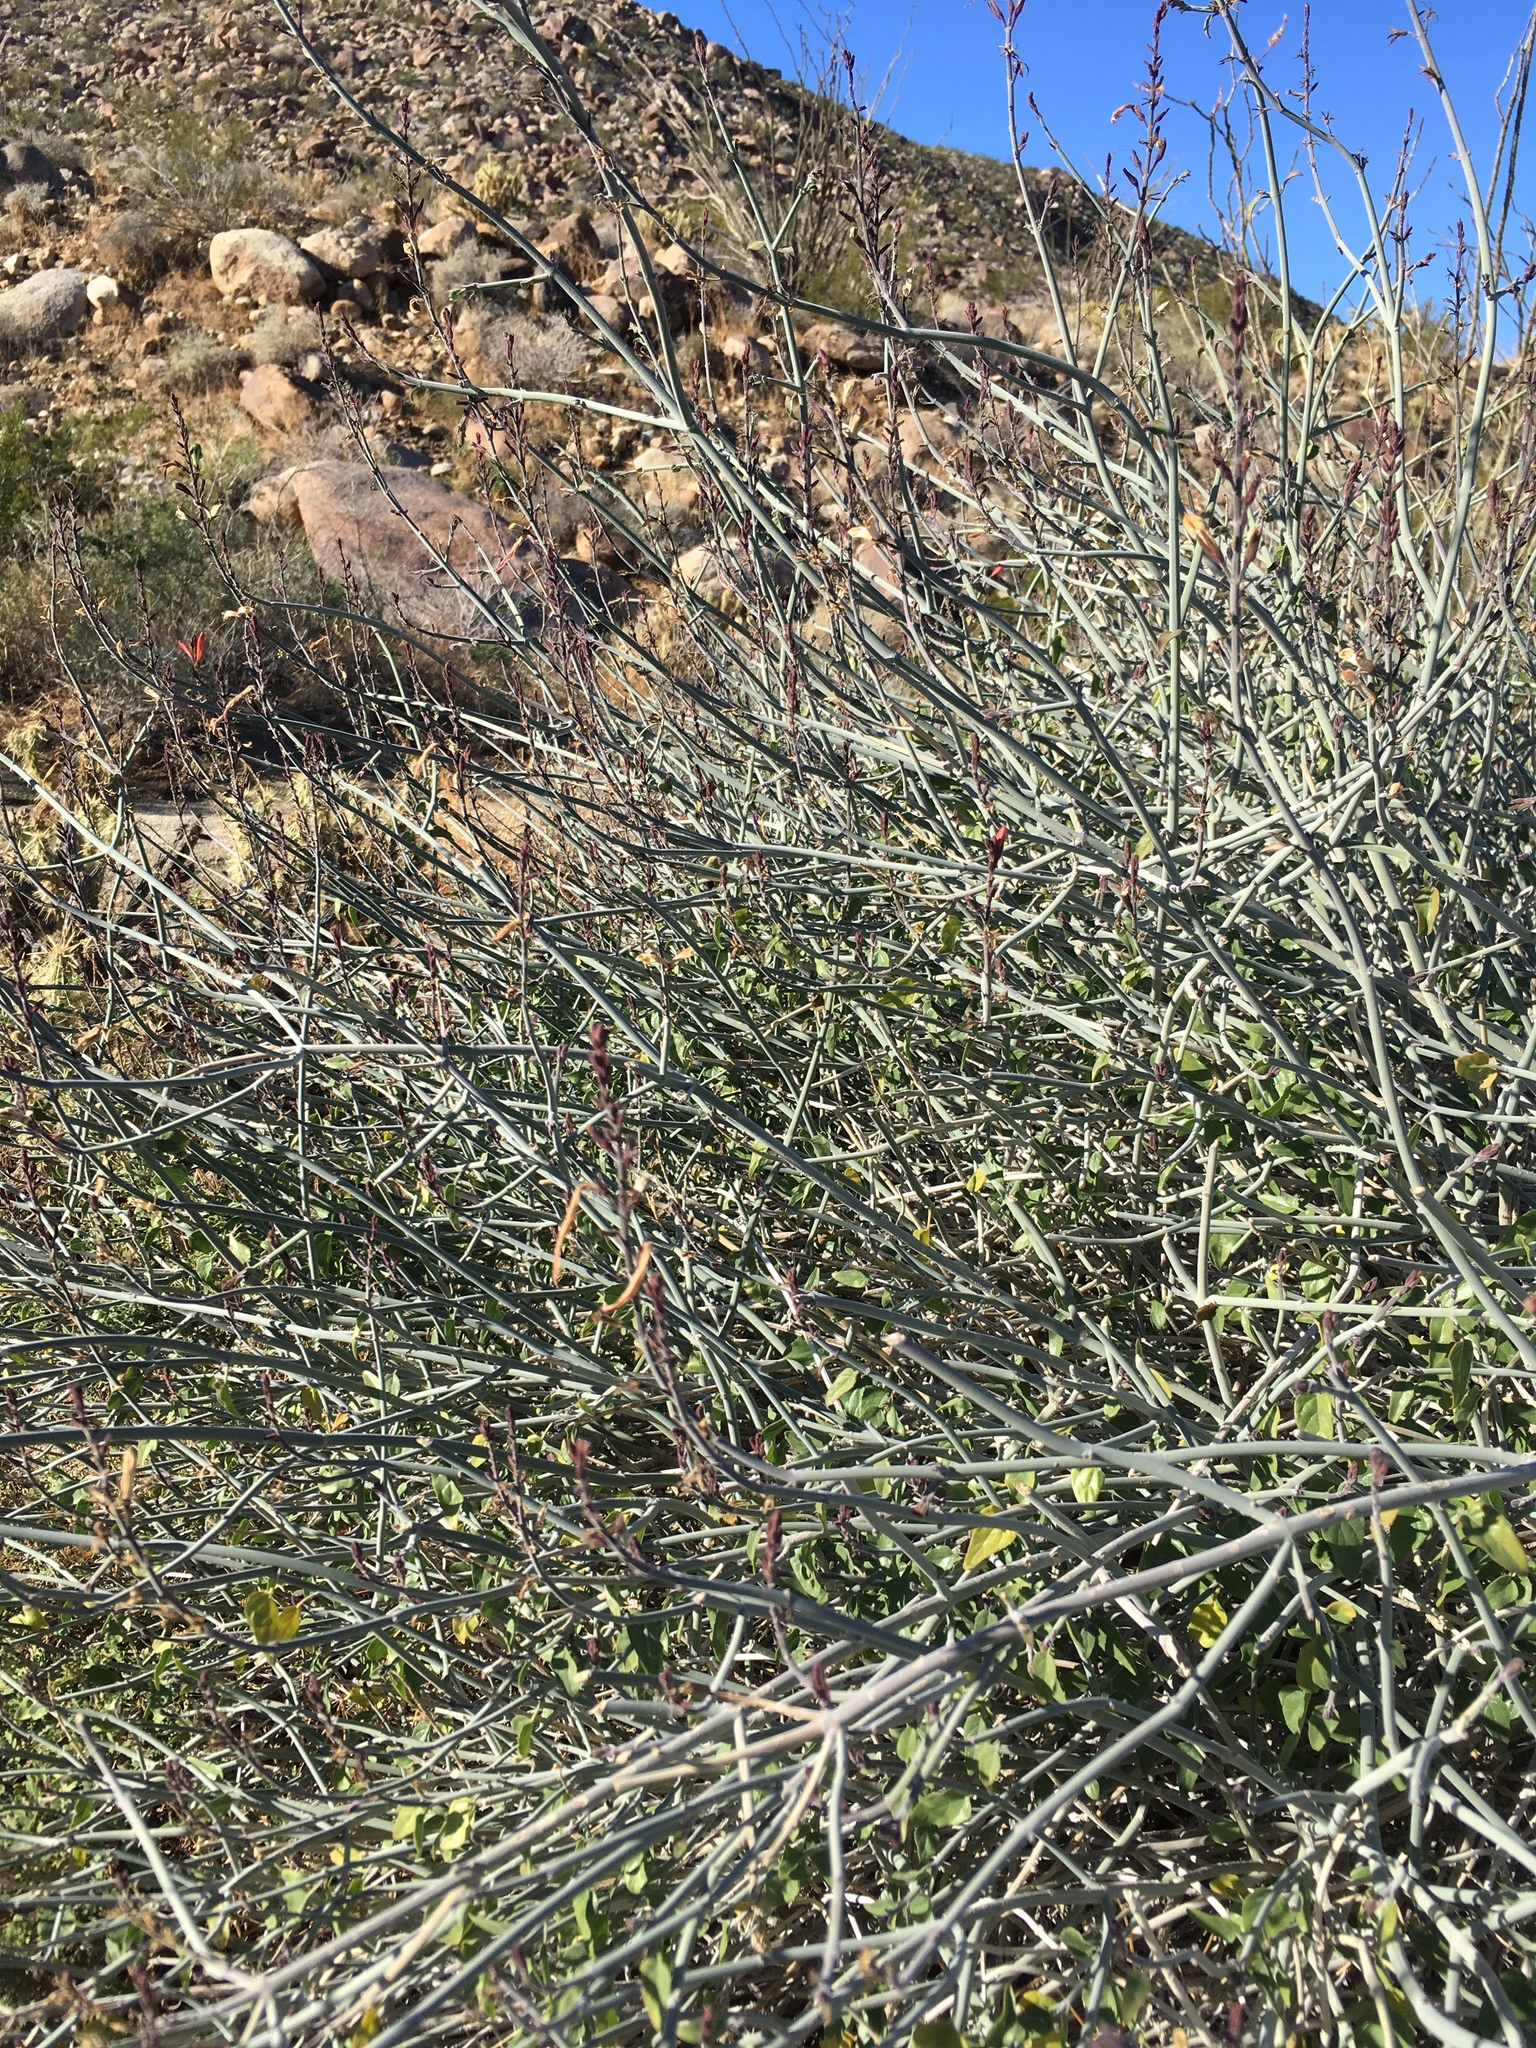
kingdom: Plantae
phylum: Tracheophyta
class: Magnoliopsida
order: Lamiales
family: Acanthaceae
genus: Justicia
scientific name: Justicia californica
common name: Chuparosa-honeysuckle
